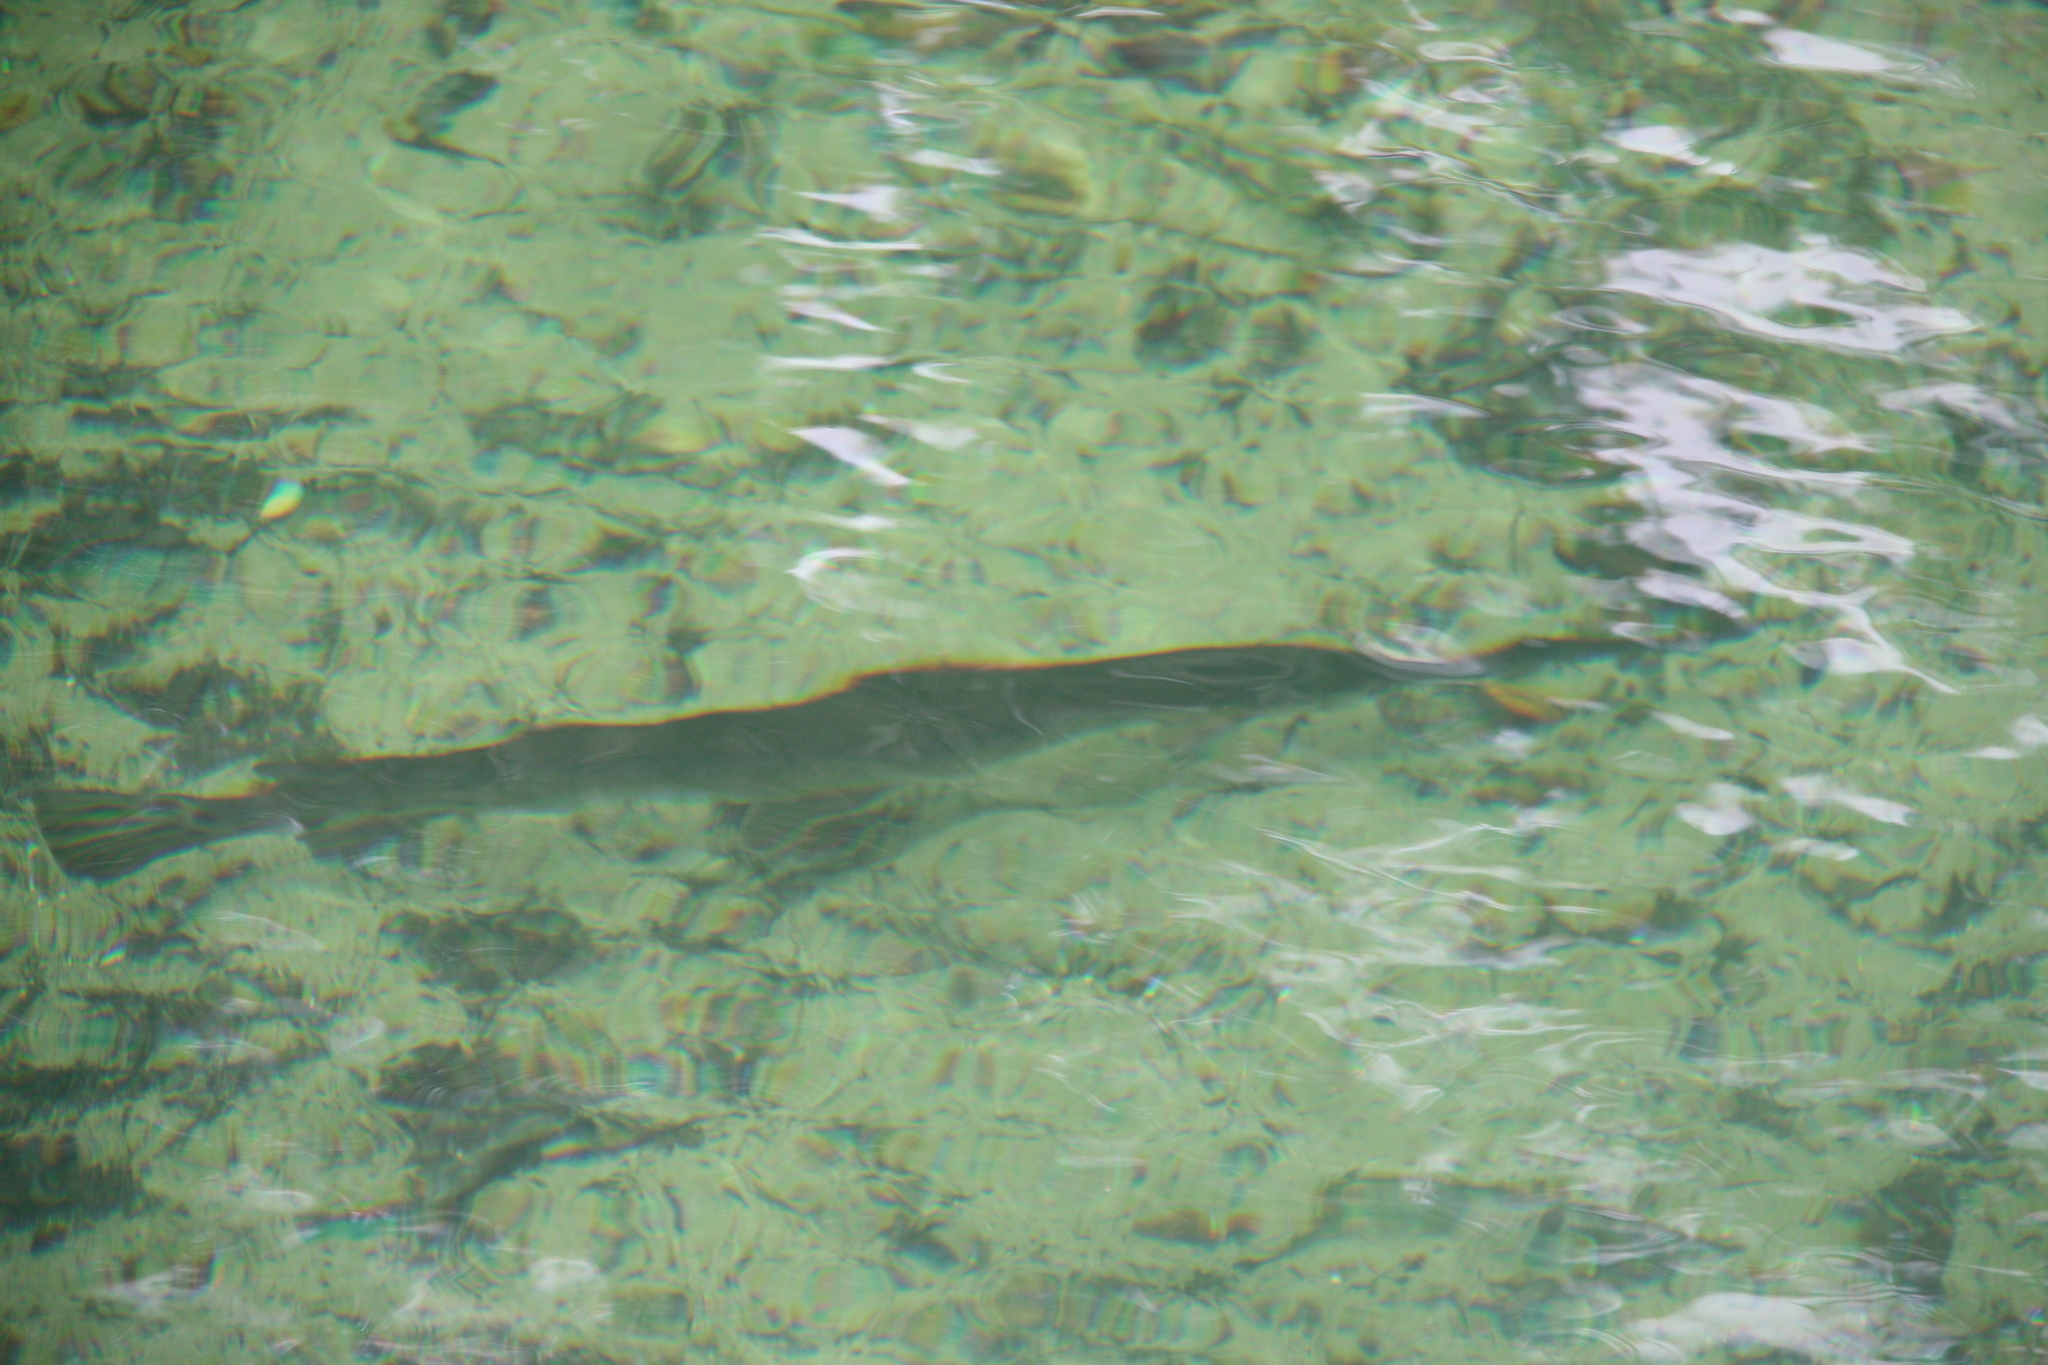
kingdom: Animalia
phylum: Chordata
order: Lepisosteiformes
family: Lepisosteidae
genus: Lepisosteus
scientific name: Lepisosteus osseus
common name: Longnose gar
